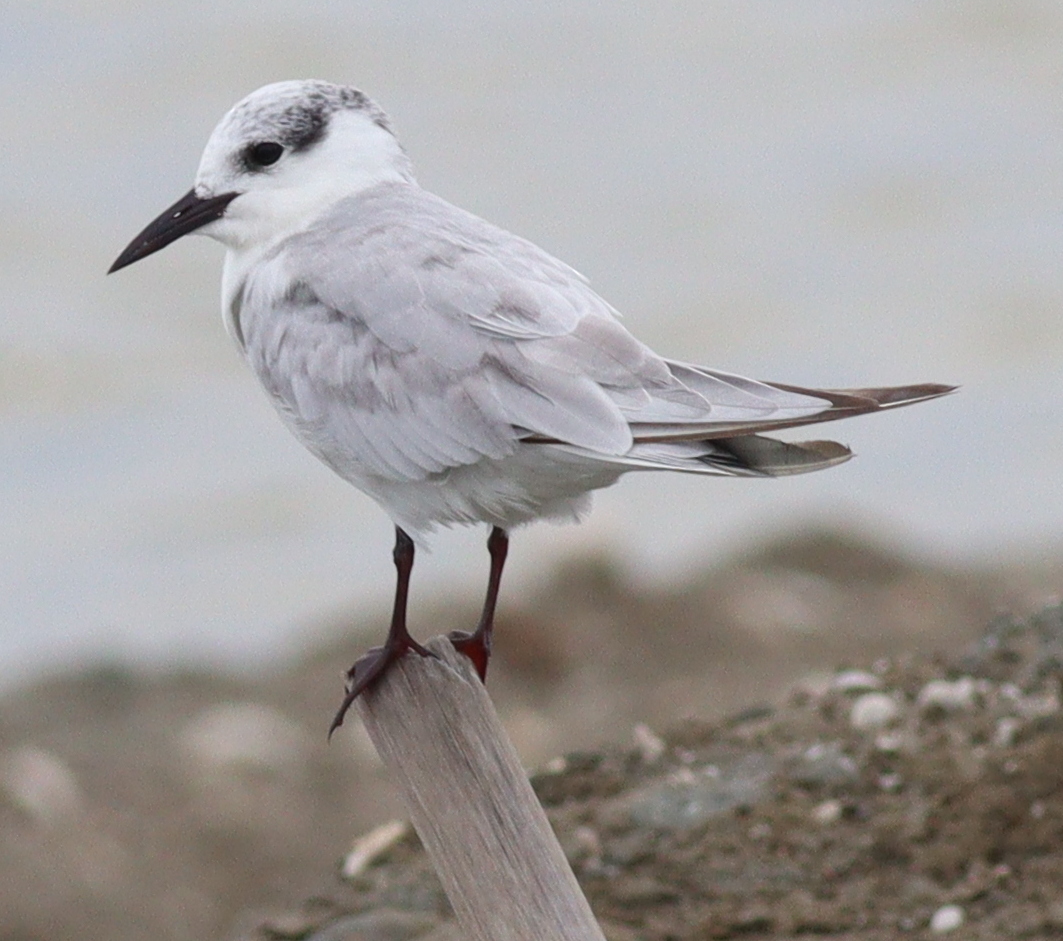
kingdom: Animalia
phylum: Chordata
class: Aves
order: Charadriiformes
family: Laridae
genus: Chlidonias
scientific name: Chlidonias hybrida
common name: Whiskered tern
